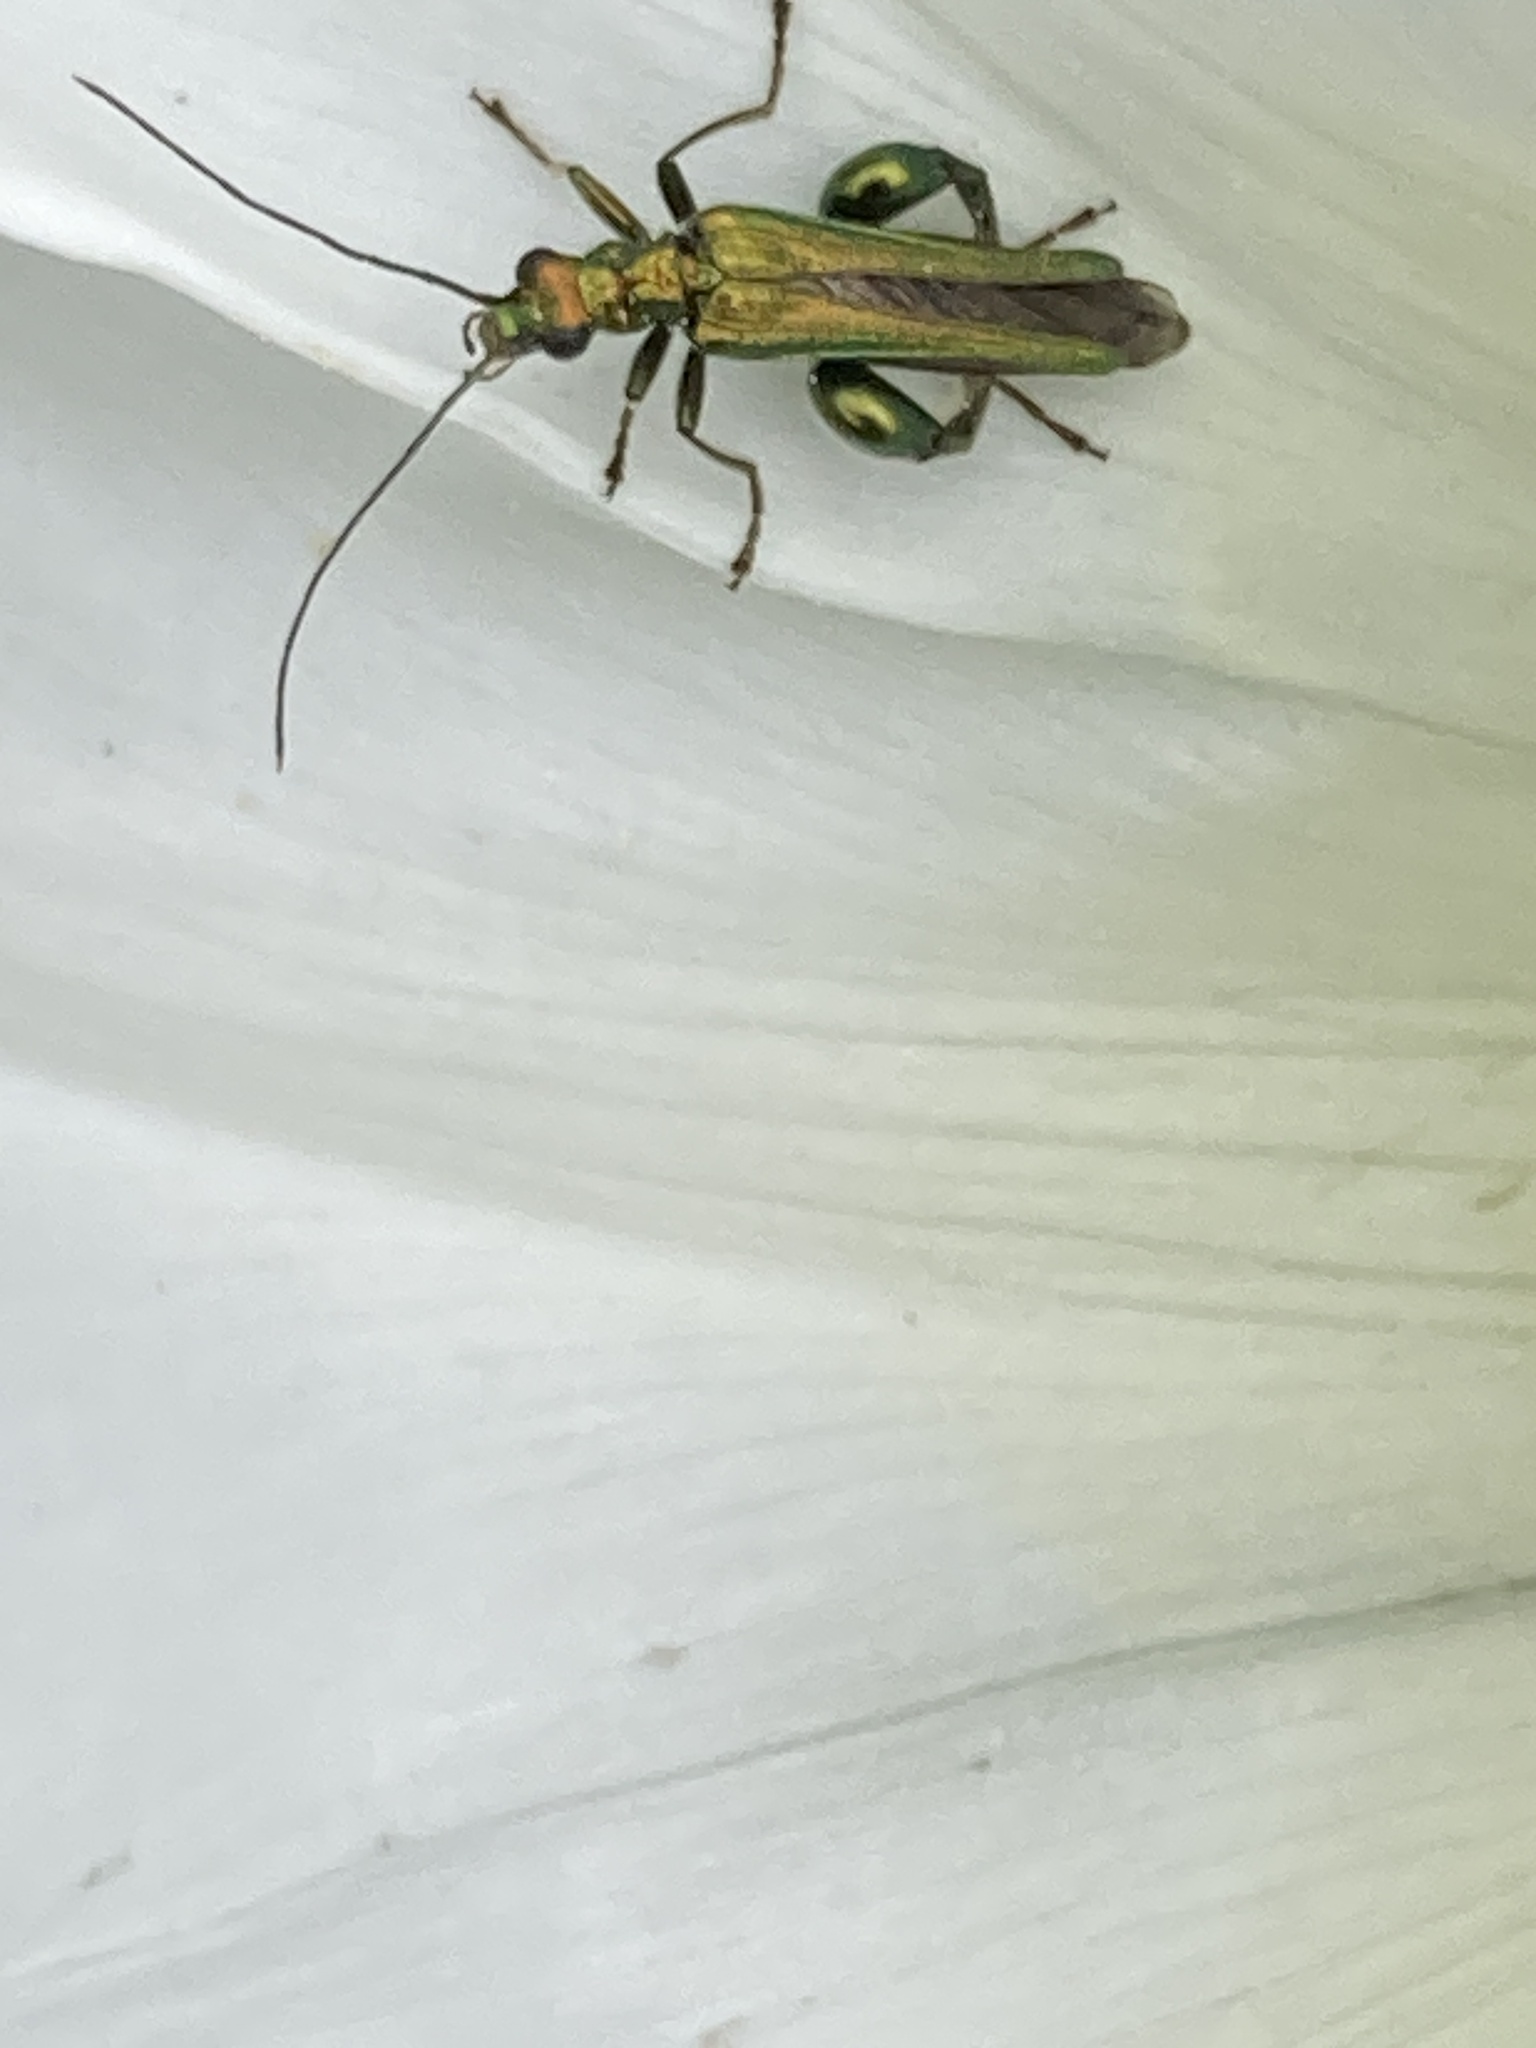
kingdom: Animalia
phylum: Arthropoda
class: Insecta
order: Coleoptera
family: Oedemeridae
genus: Oedemera
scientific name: Oedemera nobilis
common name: Swollen-thighed beetle
